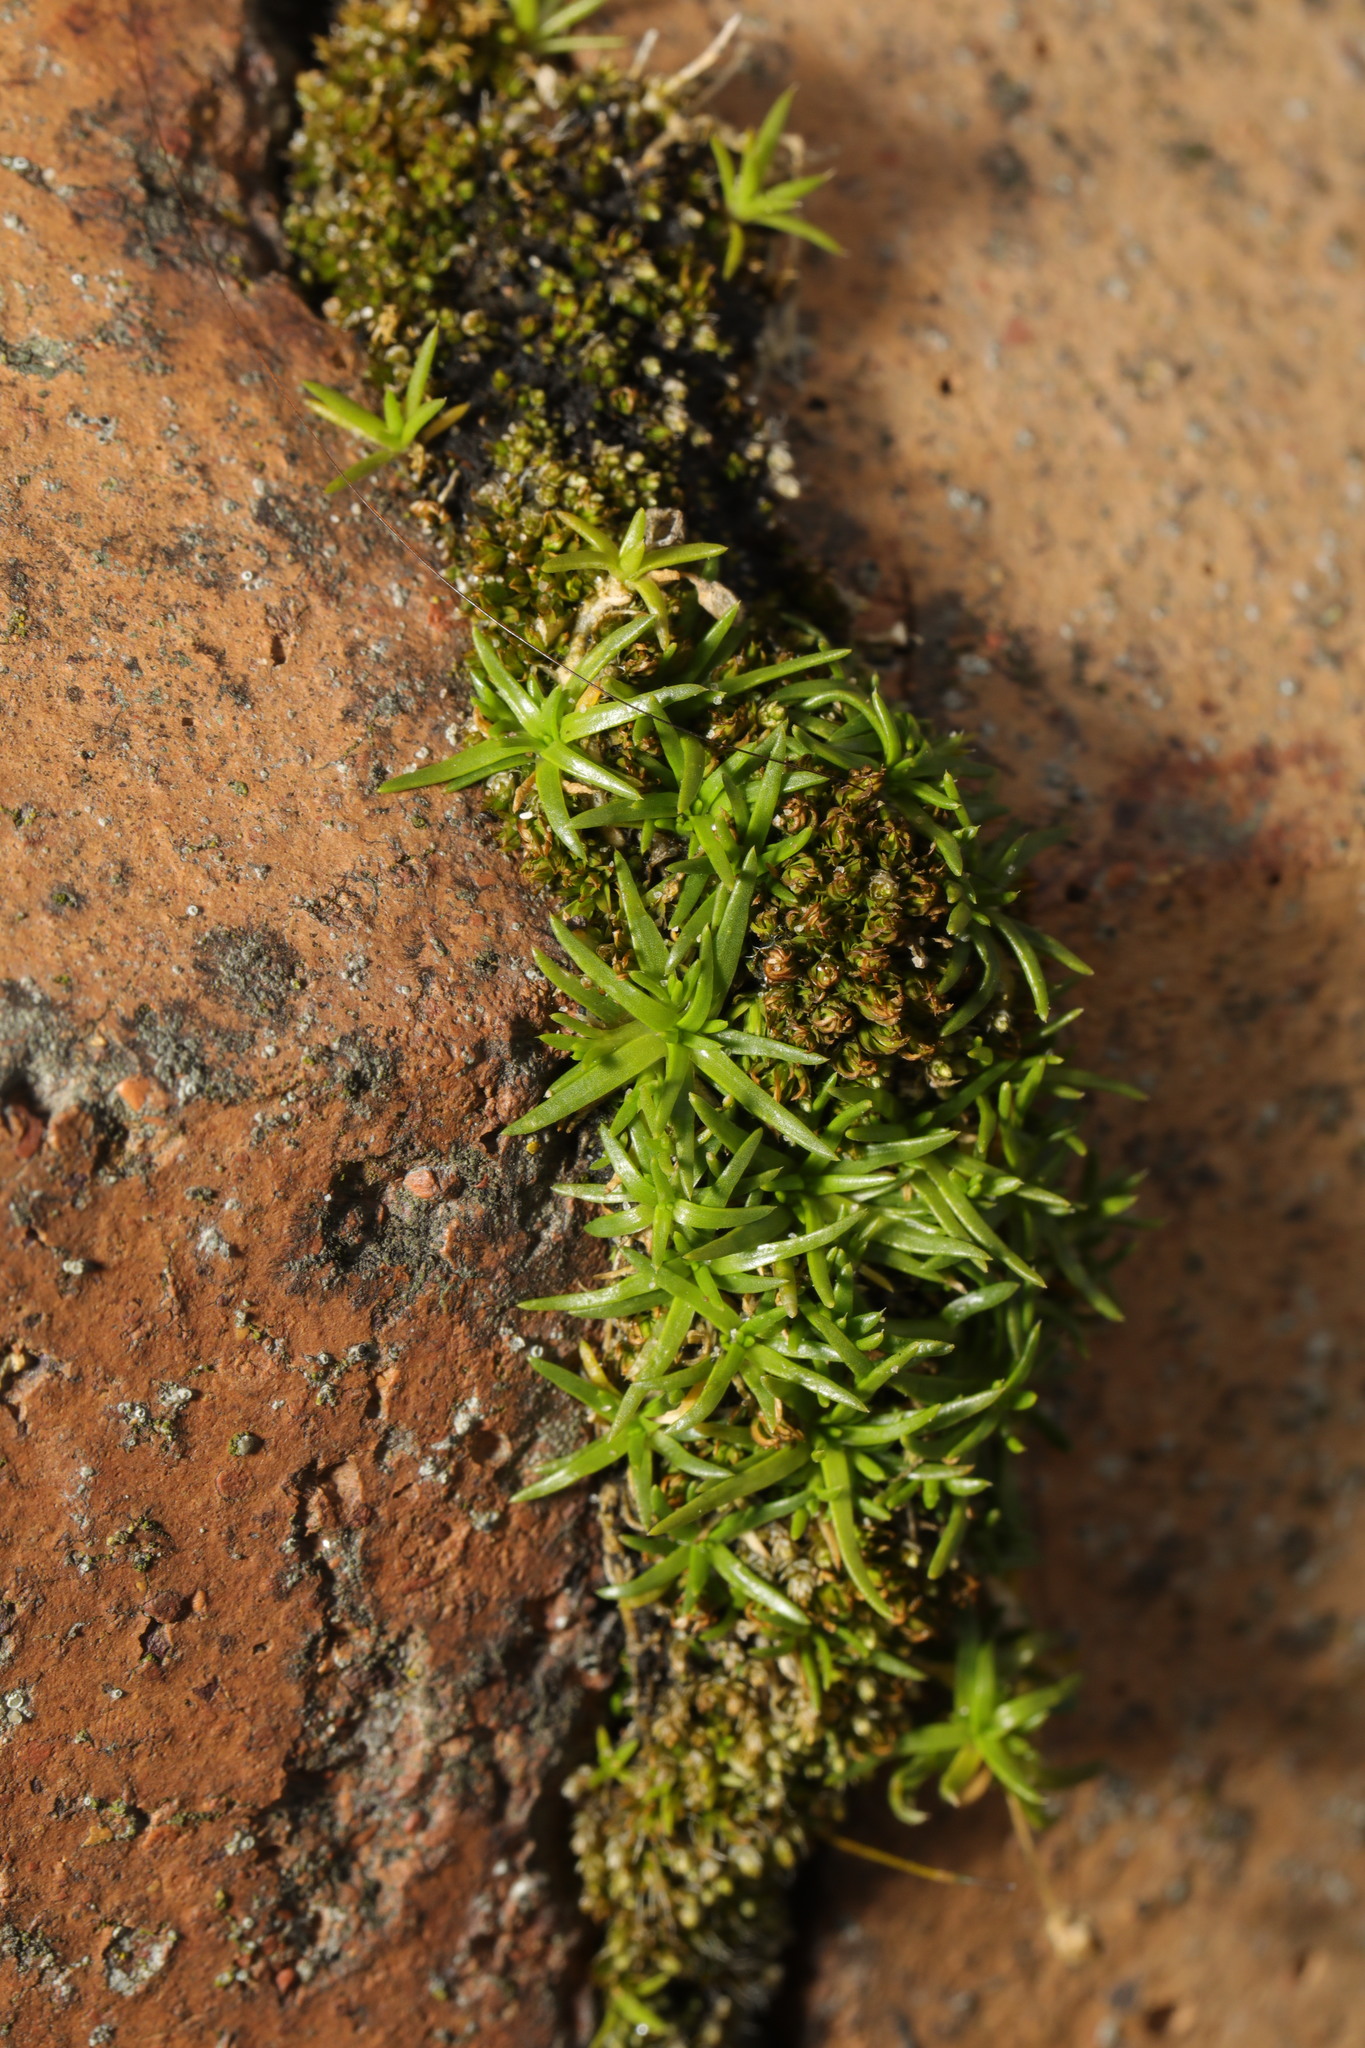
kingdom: Plantae
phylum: Tracheophyta
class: Magnoliopsida
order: Caryophyllales
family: Caryophyllaceae
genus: Sagina
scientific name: Sagina procumbens
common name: Procumbent pearlwort
